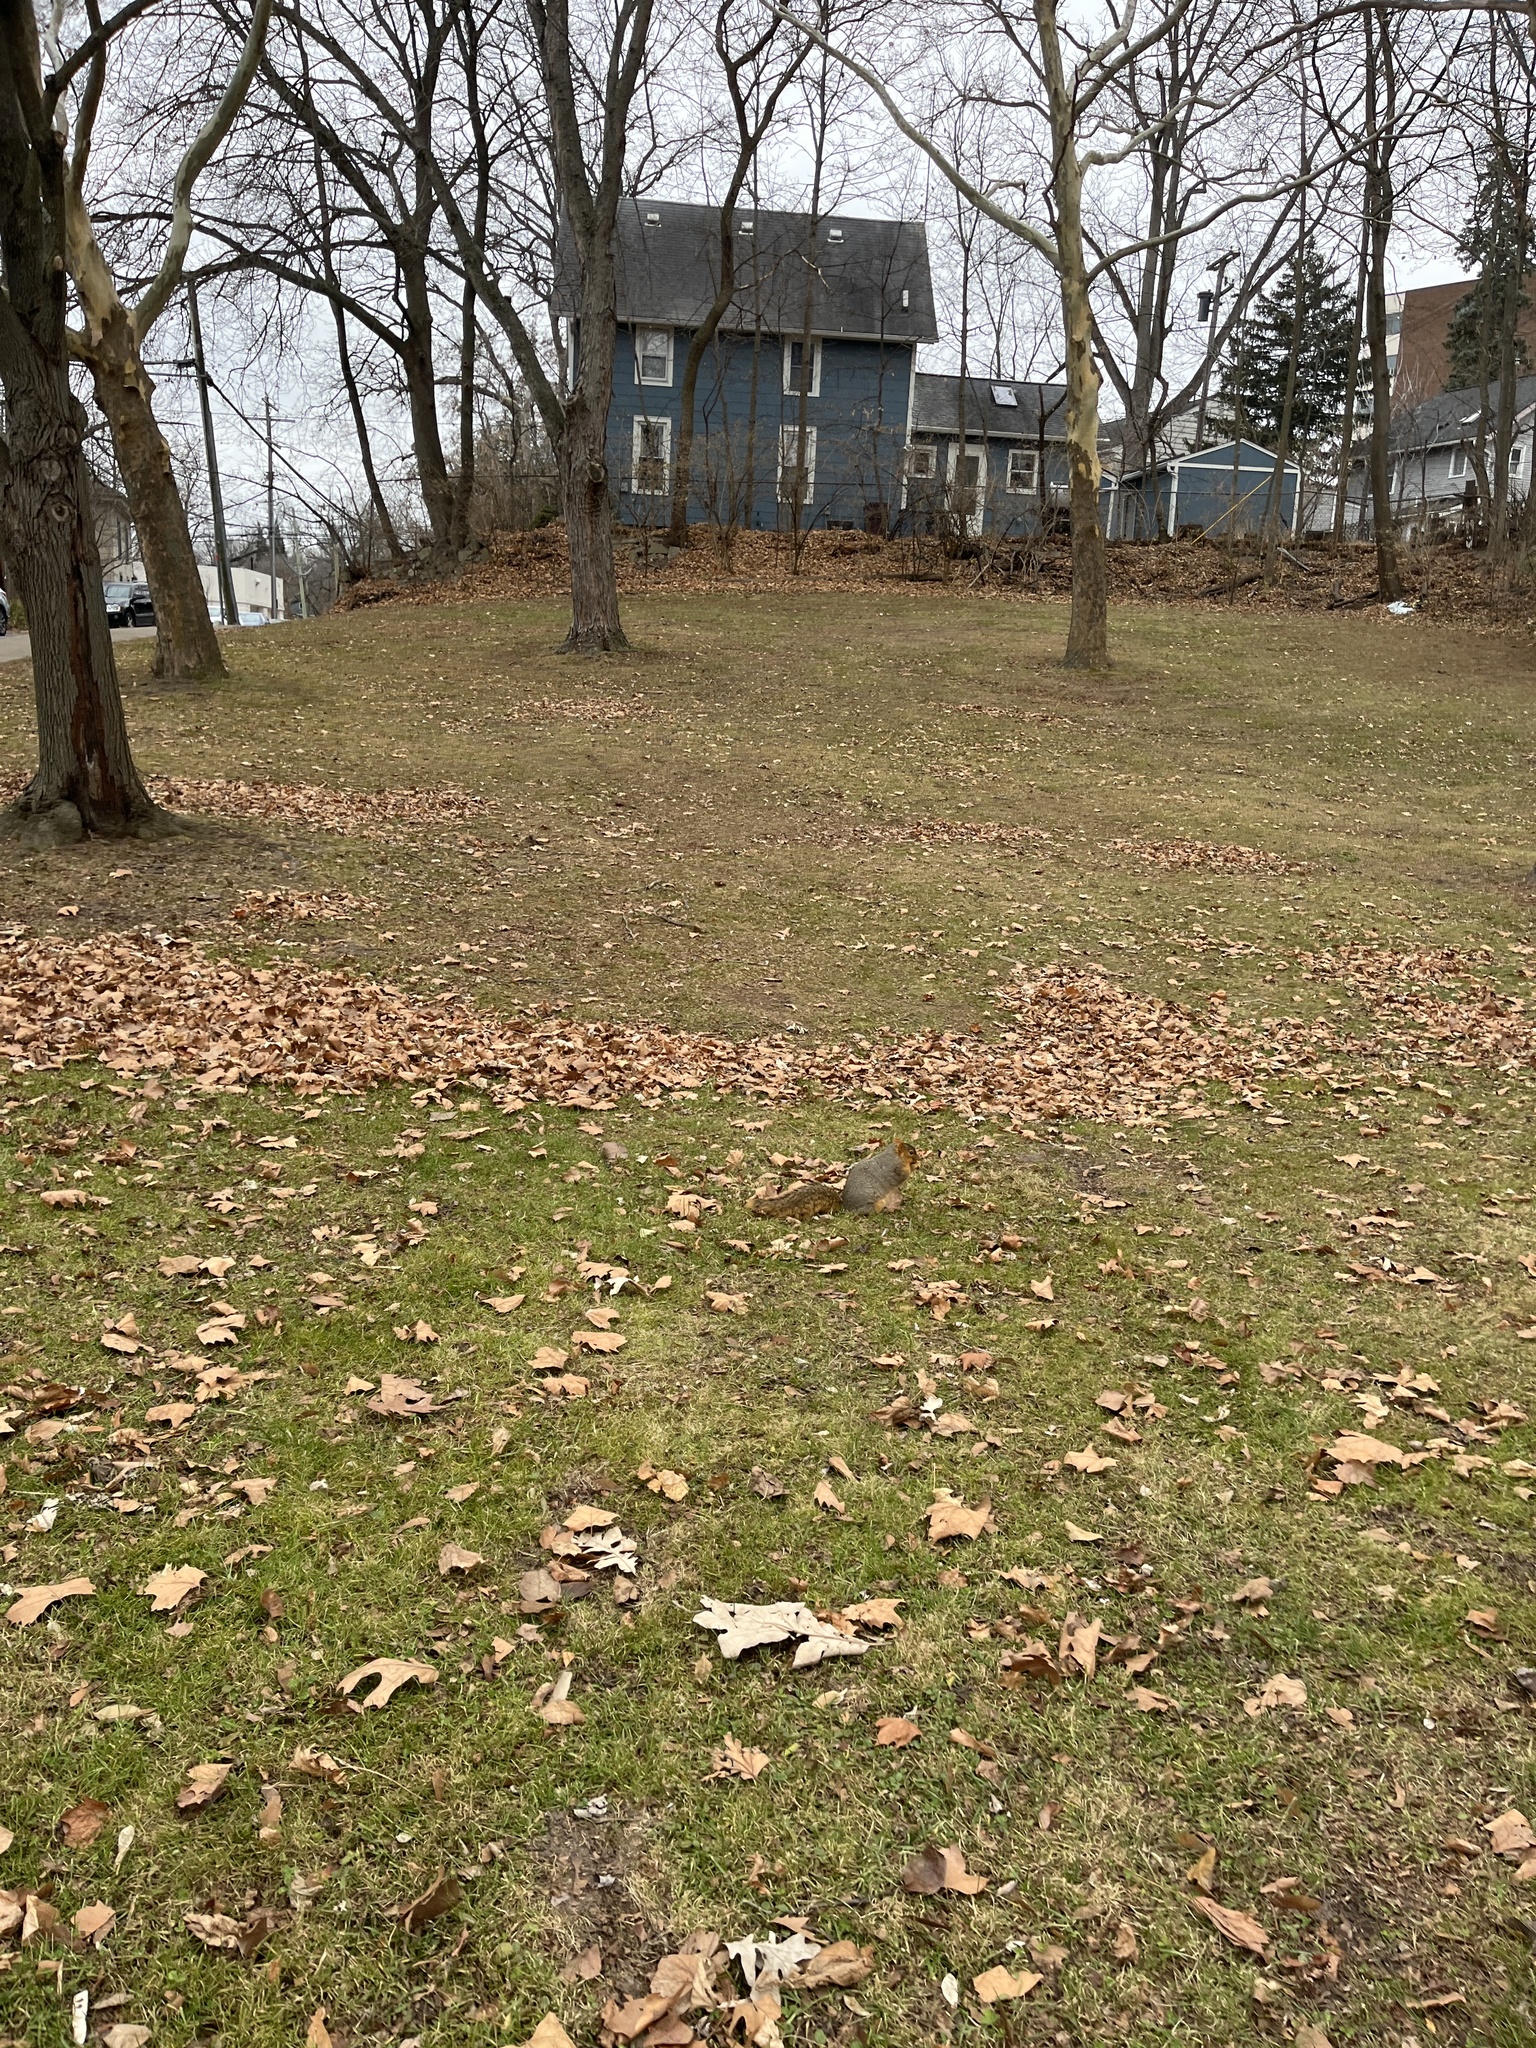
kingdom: Animalia
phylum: Chordata
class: Mammalia
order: Rodentia
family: Sciuridae
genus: Sciurus
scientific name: Sciurus niger
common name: Fox squirrel
